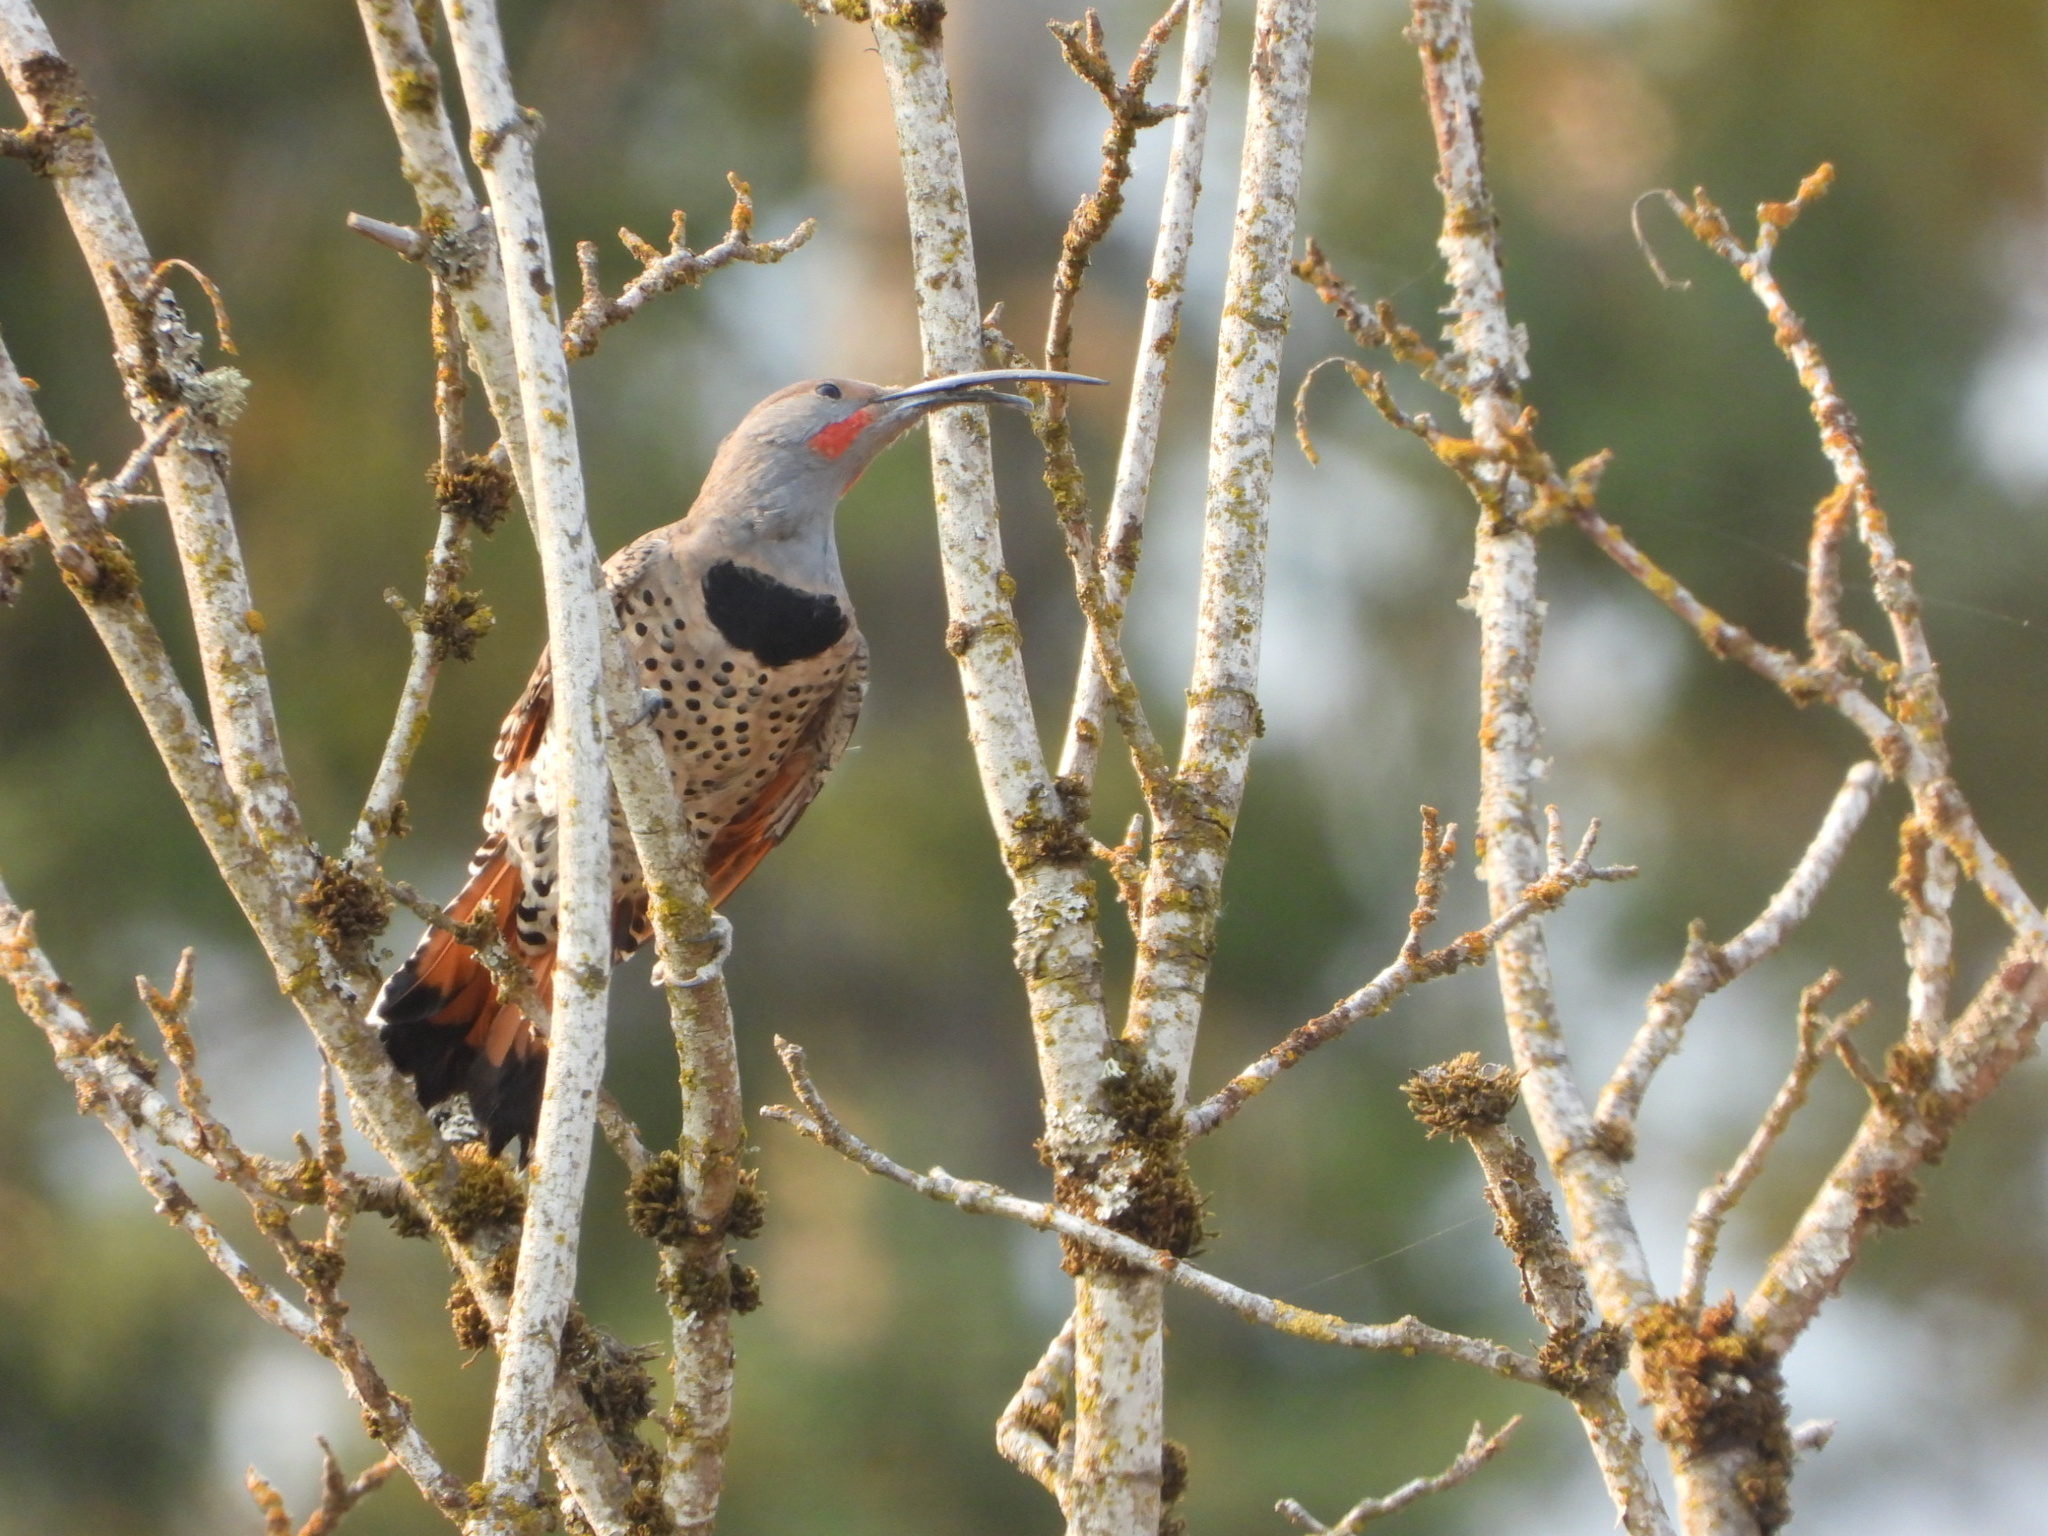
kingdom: Animalia
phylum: Chordata
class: Aves
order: Piciformes
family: Picidae
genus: Colaptes
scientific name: Colaptes auratus
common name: Northern flicker
